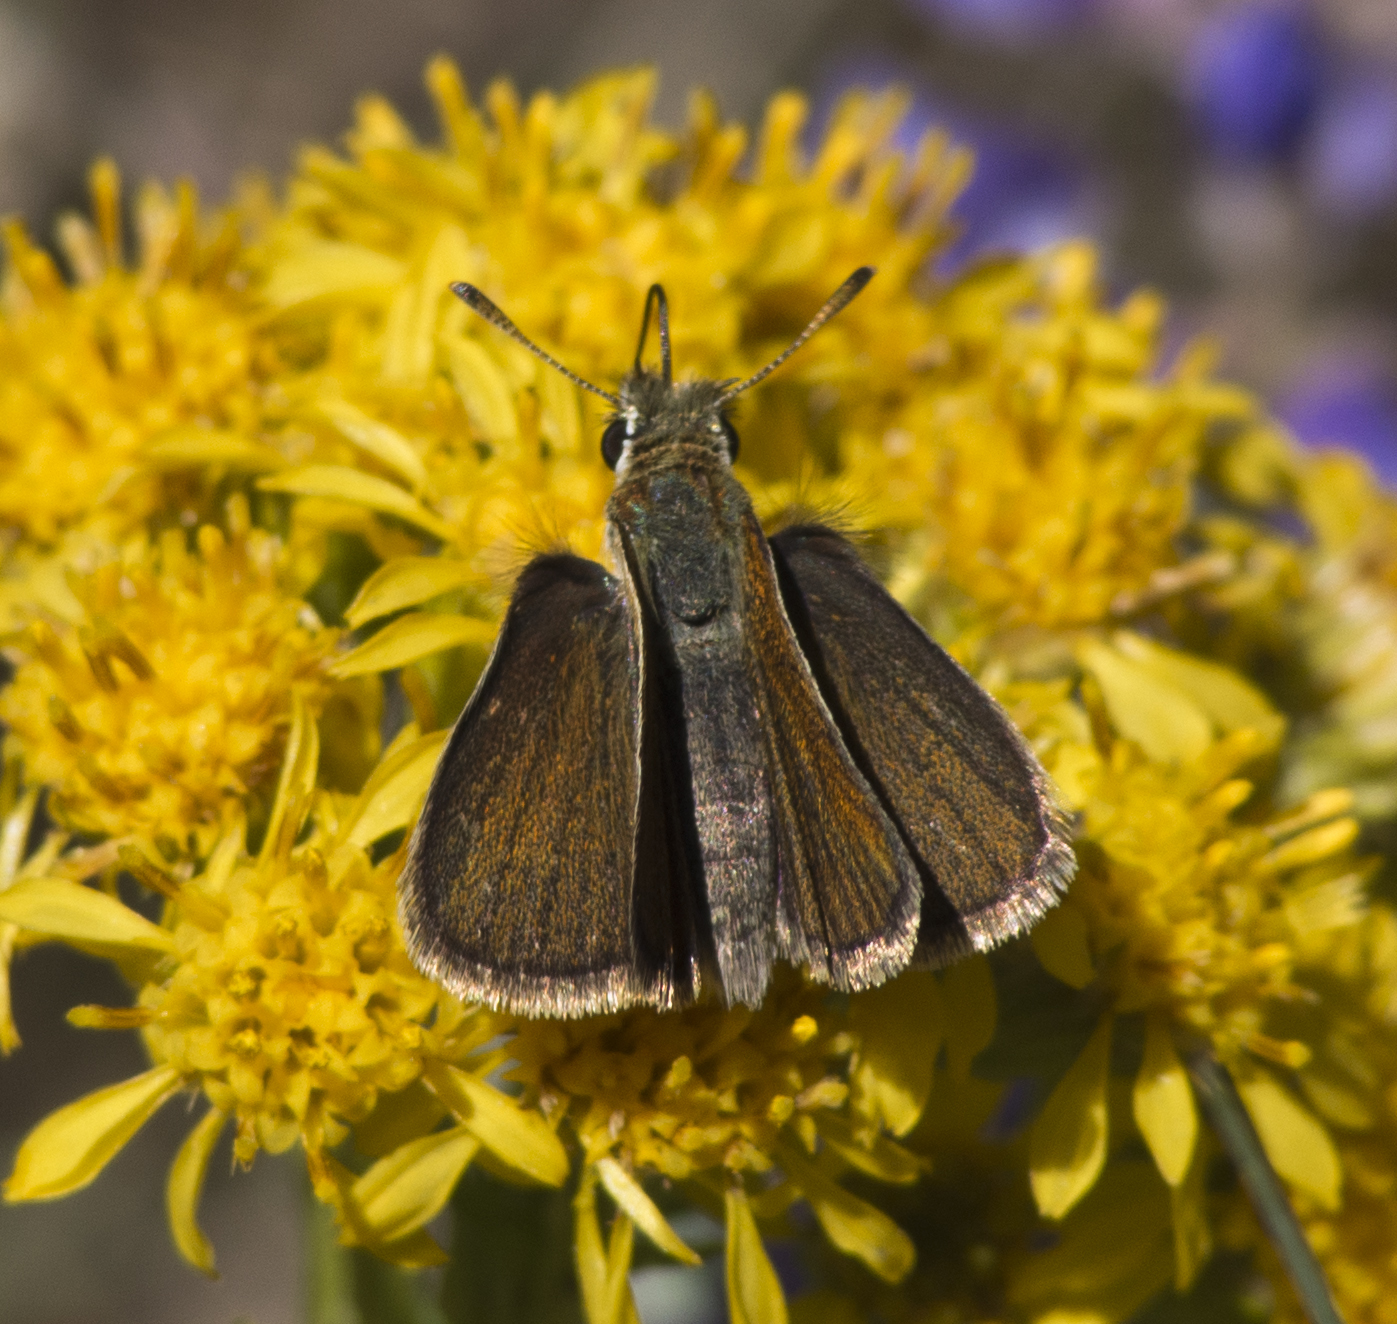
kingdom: Animalia
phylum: Arthropoda
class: Insecta
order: Lepidoptera
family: Hesperiidae
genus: Oarisma
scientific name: Oarisma garita
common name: Garita skipperling
